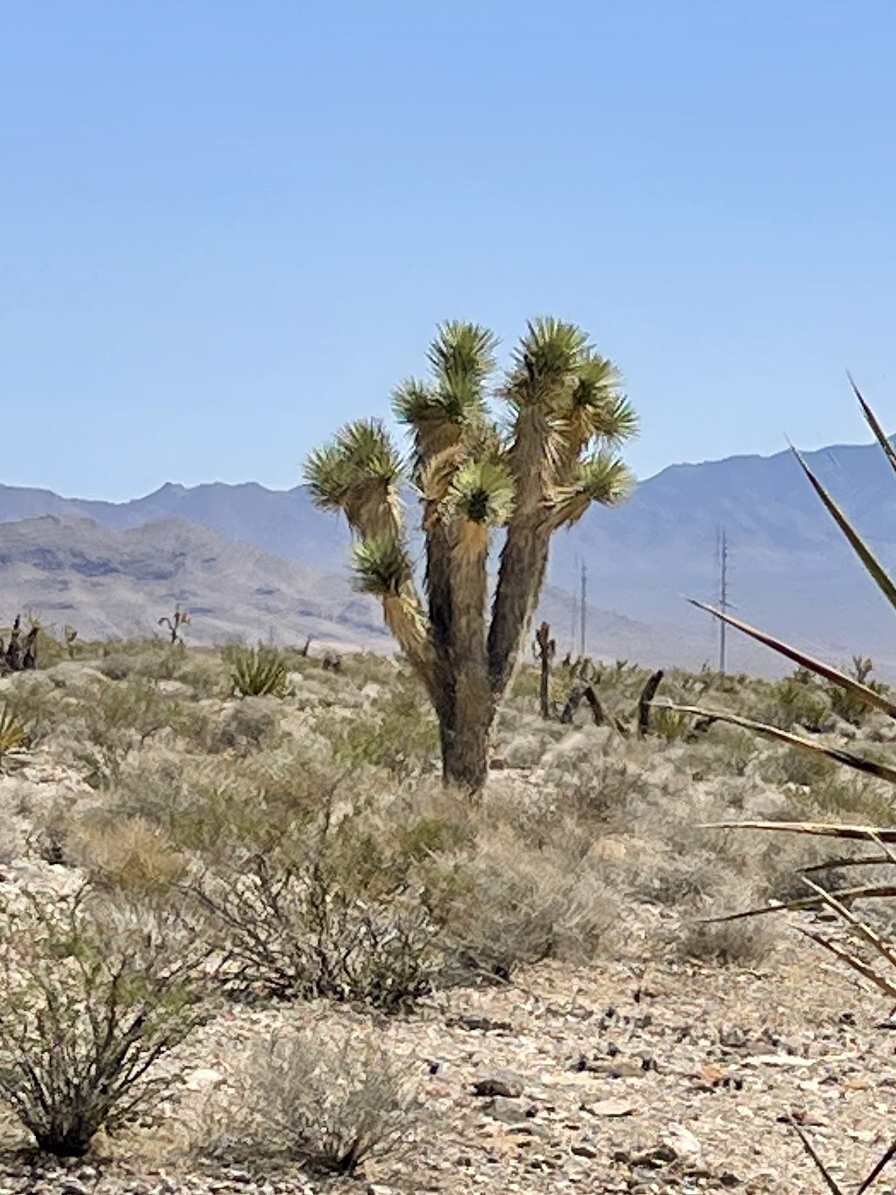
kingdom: Plantae
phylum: Tracheophyta
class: Liliopsida
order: Asparagales
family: Asparagaceae
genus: Yucca
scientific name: Yucca brevifolia
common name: Joshua tree
